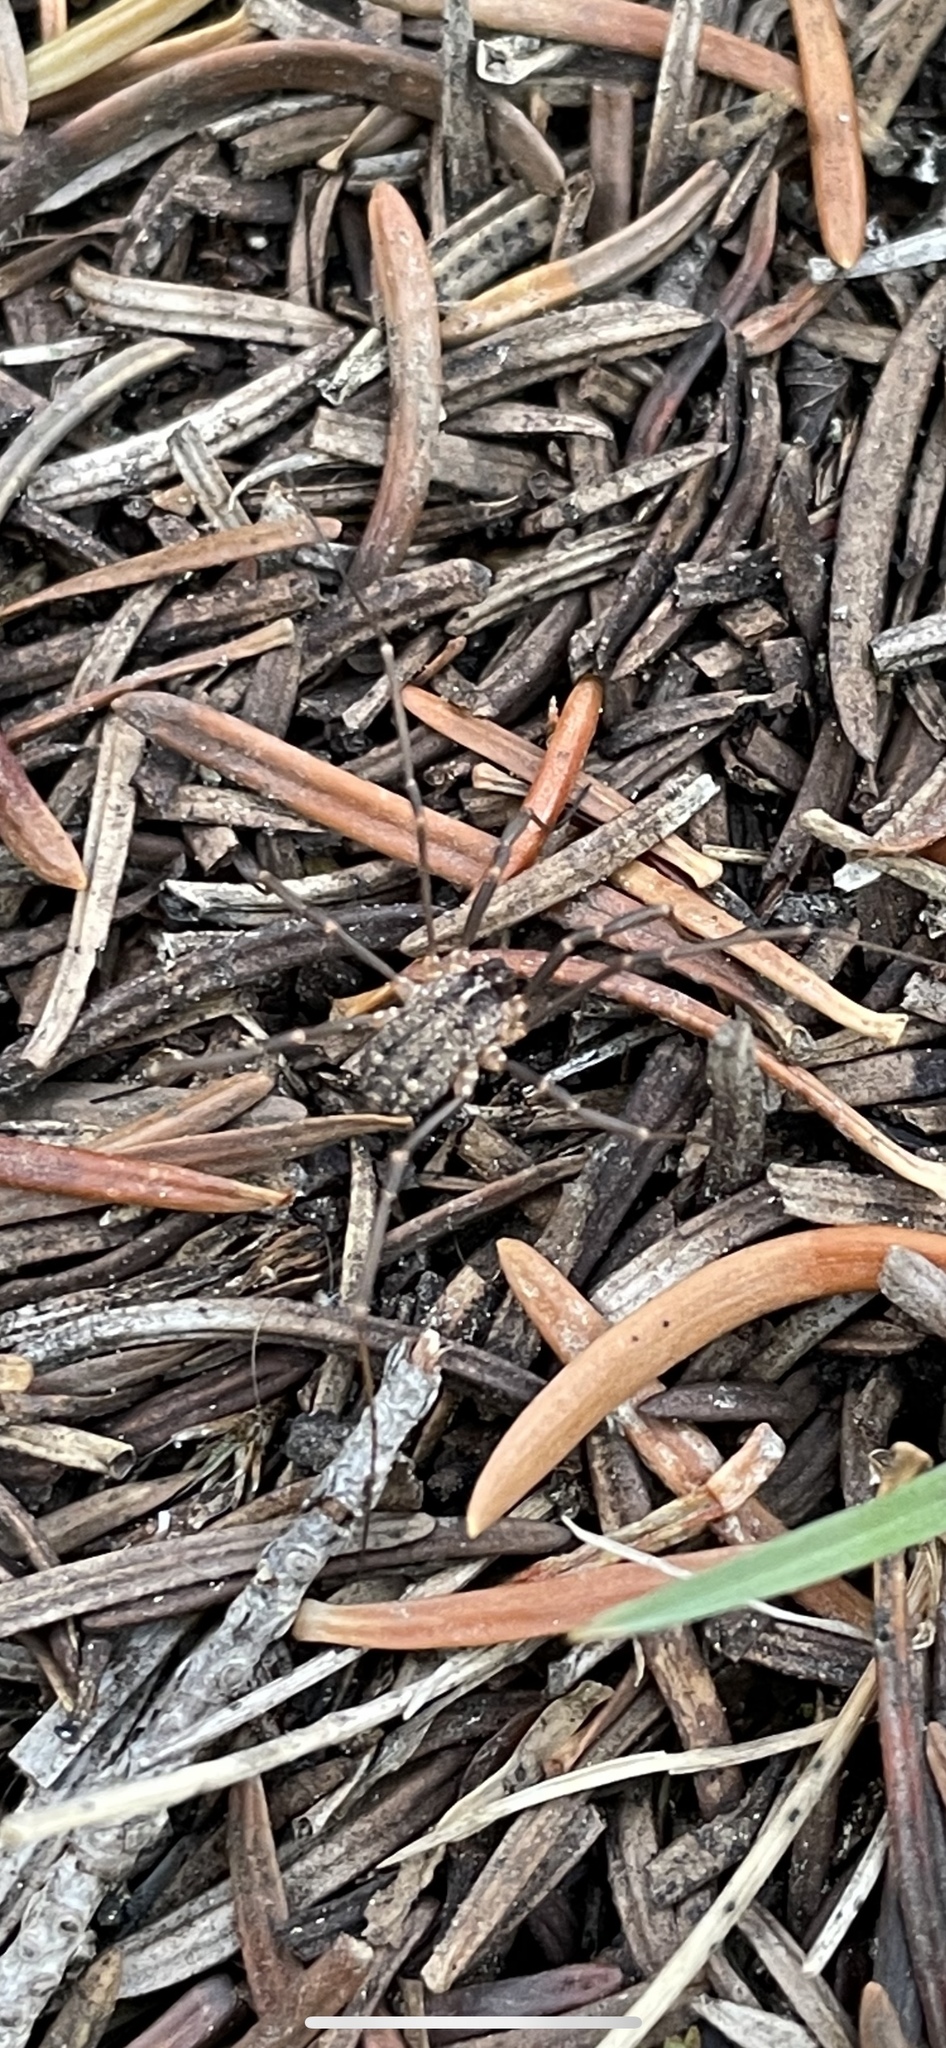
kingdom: Animalia
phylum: Arthropoda
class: Arachnida
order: Opiliones
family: Sclerosomatidae
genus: Togwoteeus
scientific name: Togwoteeus biceps
